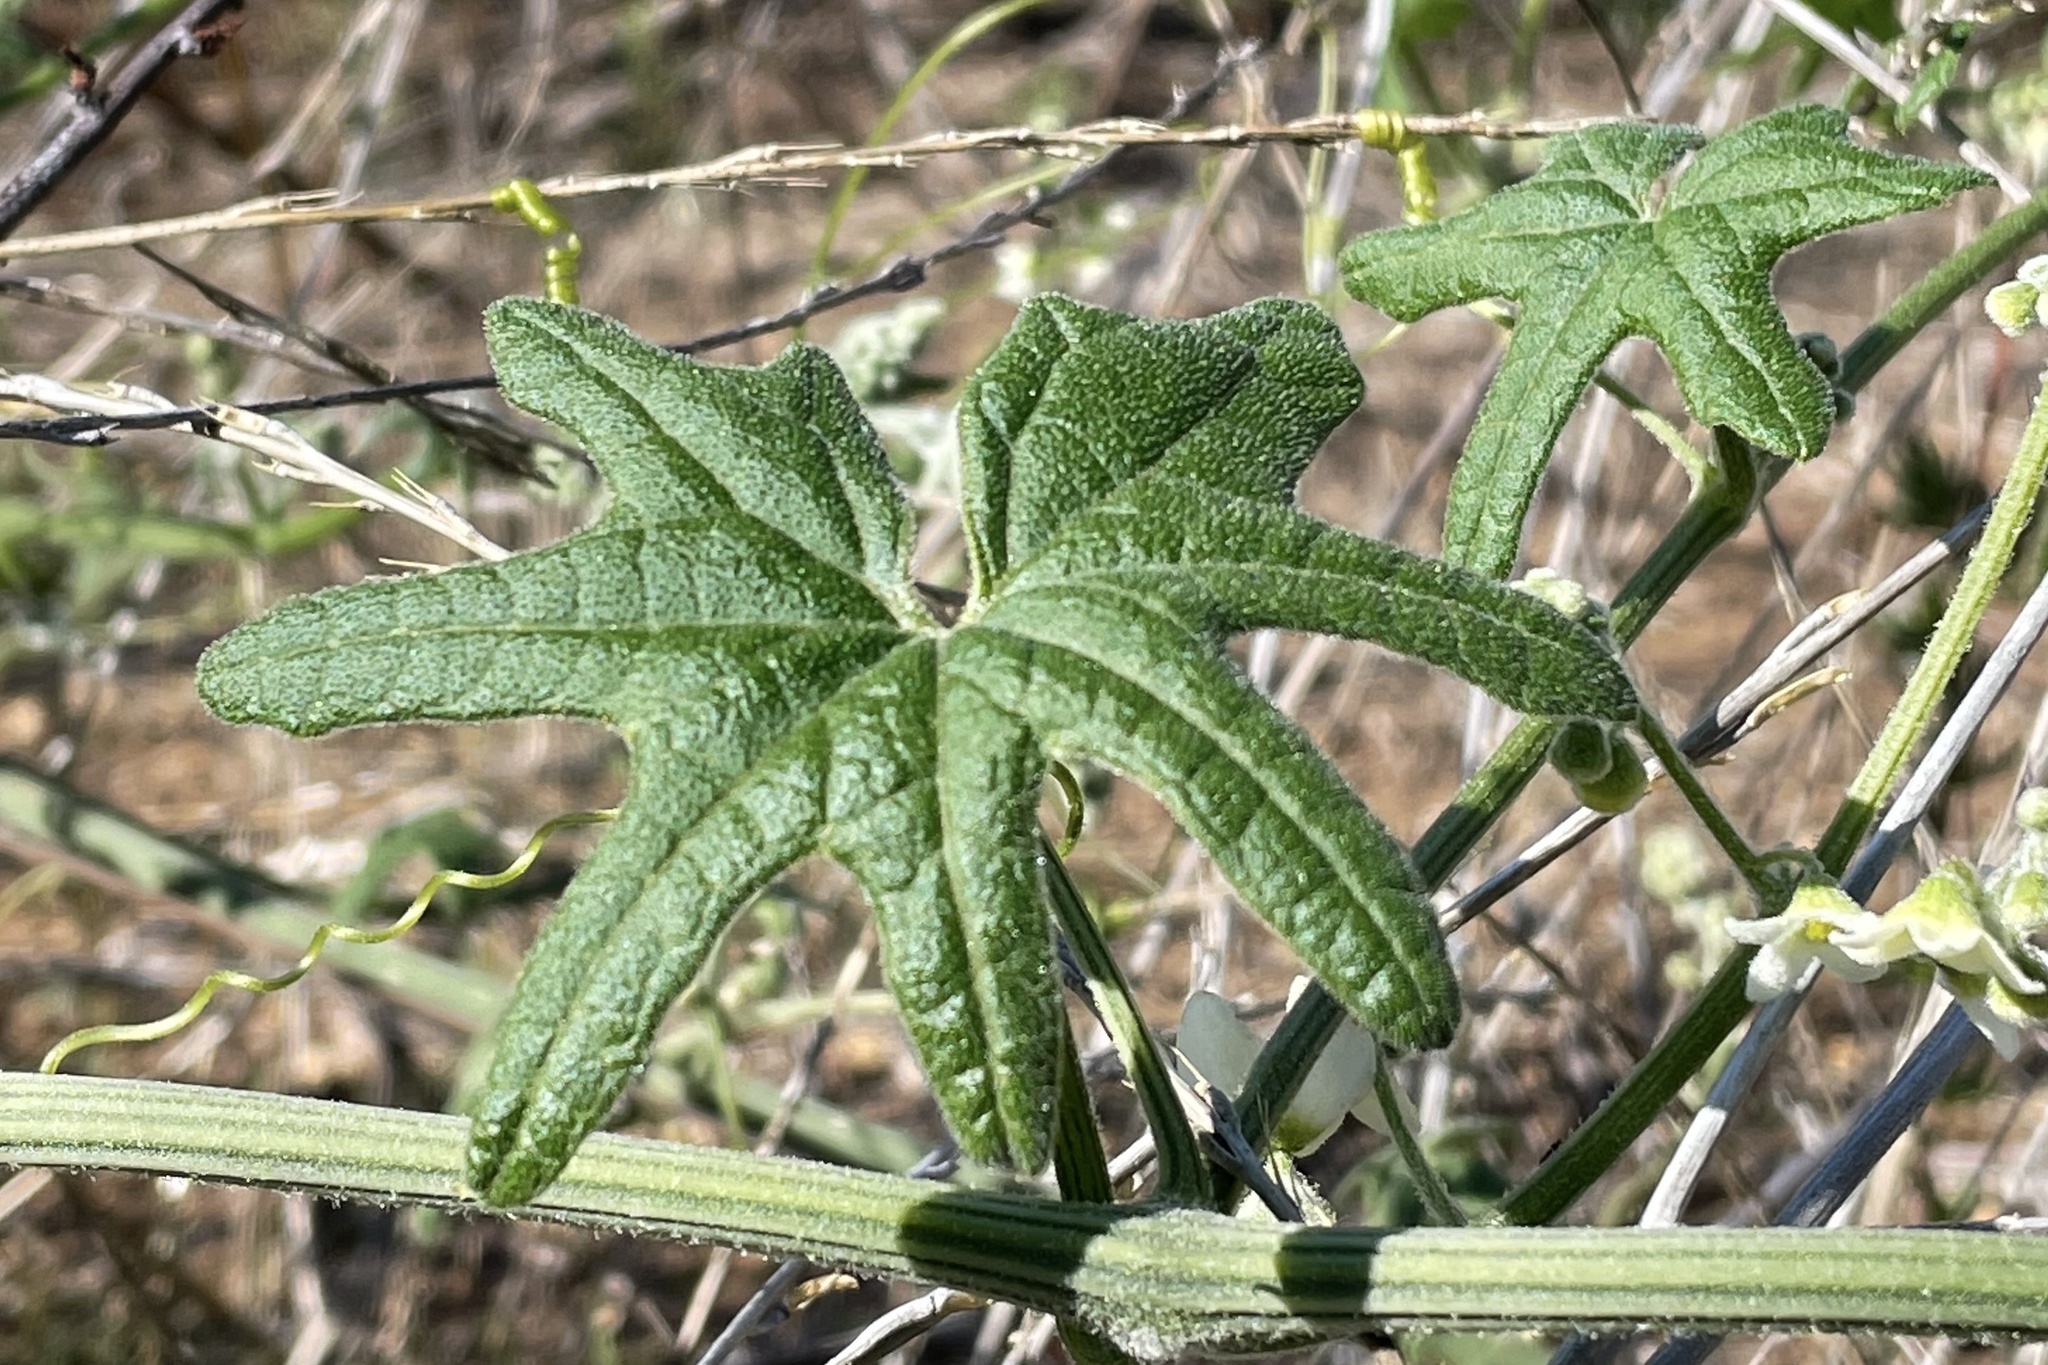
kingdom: Plantae
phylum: Tracheophyta
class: Magnoliopsida
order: Cucurbitales
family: Cucurbitaceae
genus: Marah
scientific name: Marah macrocarpa
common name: Cucamonga manroot
